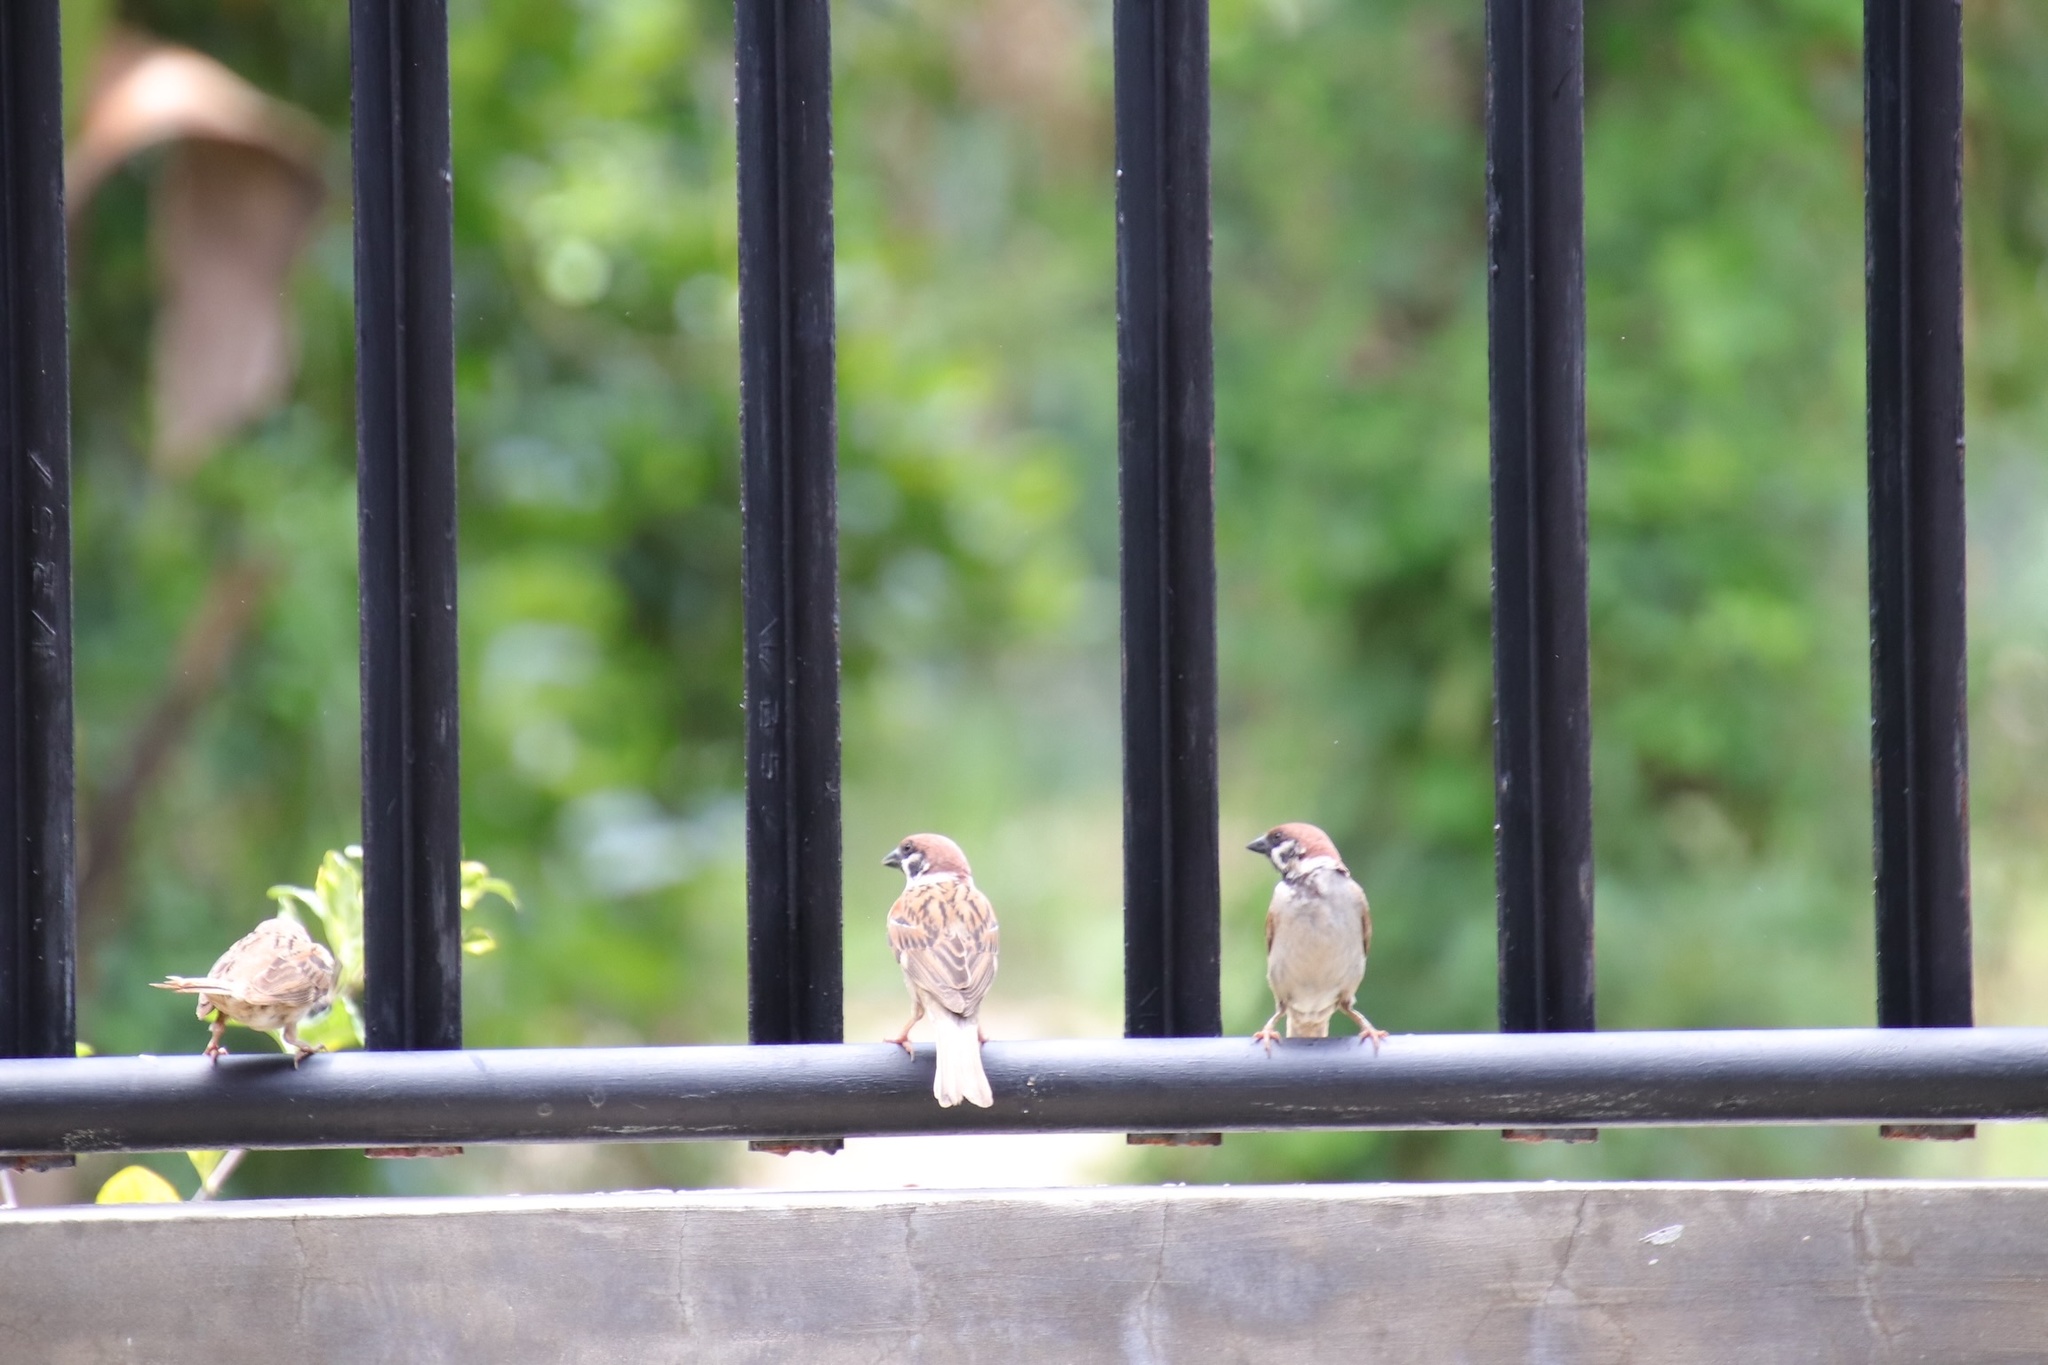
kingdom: Animalia
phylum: Chordata
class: Aves
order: Passeriformes
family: Passeridae
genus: Passer
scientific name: Passer montanus
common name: Eurasian tree sparrow
